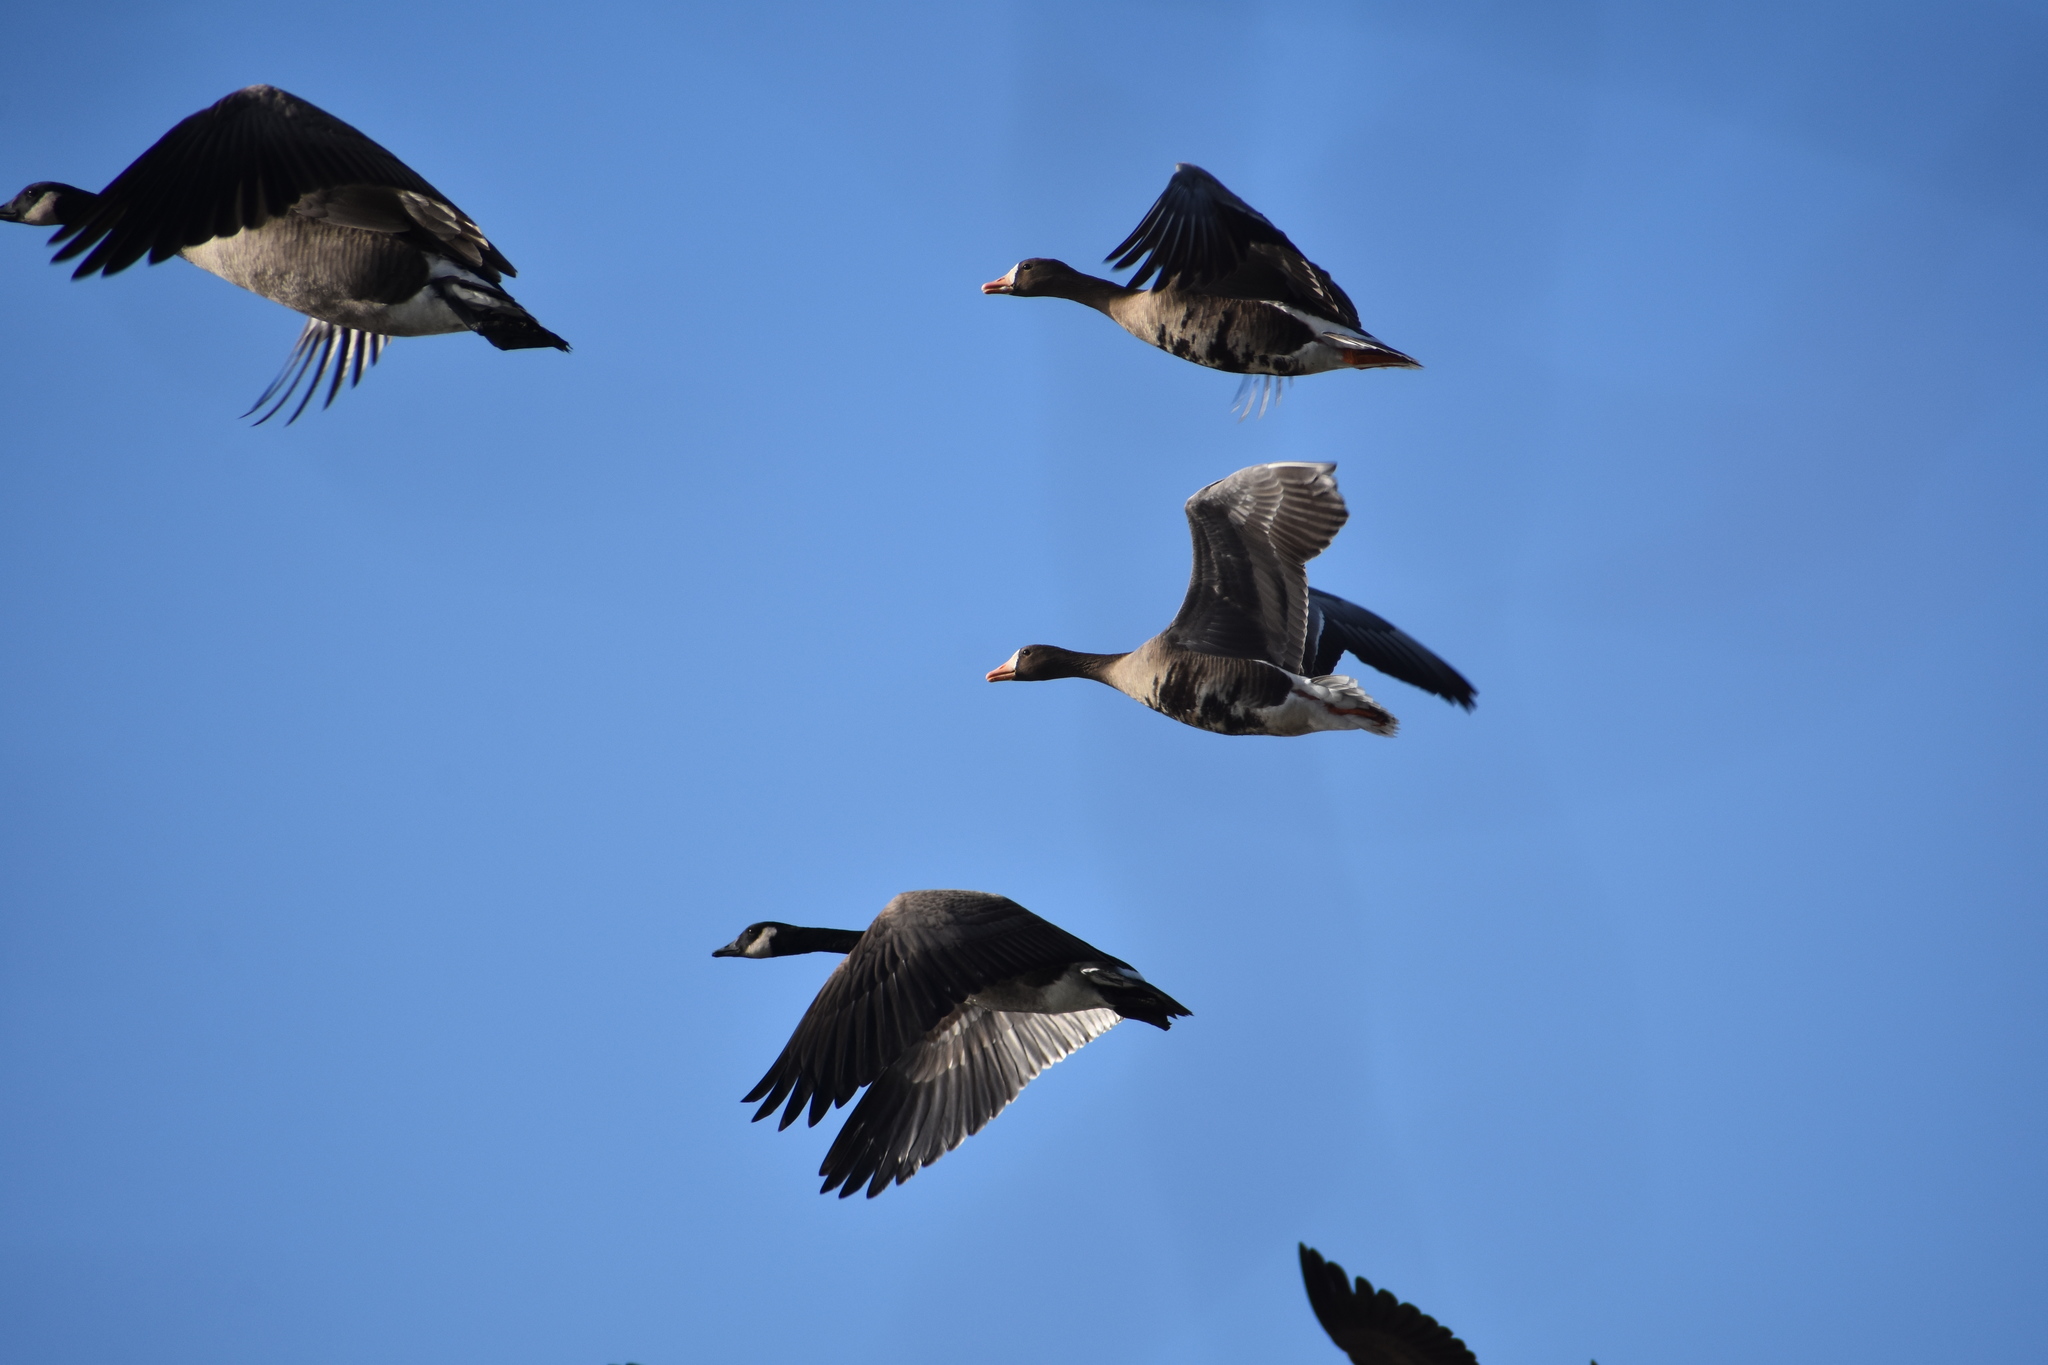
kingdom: Animalia
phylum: Chordata
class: Aves
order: Anseriformes
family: Anatidae
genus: Anser
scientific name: Anser albifrons
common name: Greater white-fronted goose
